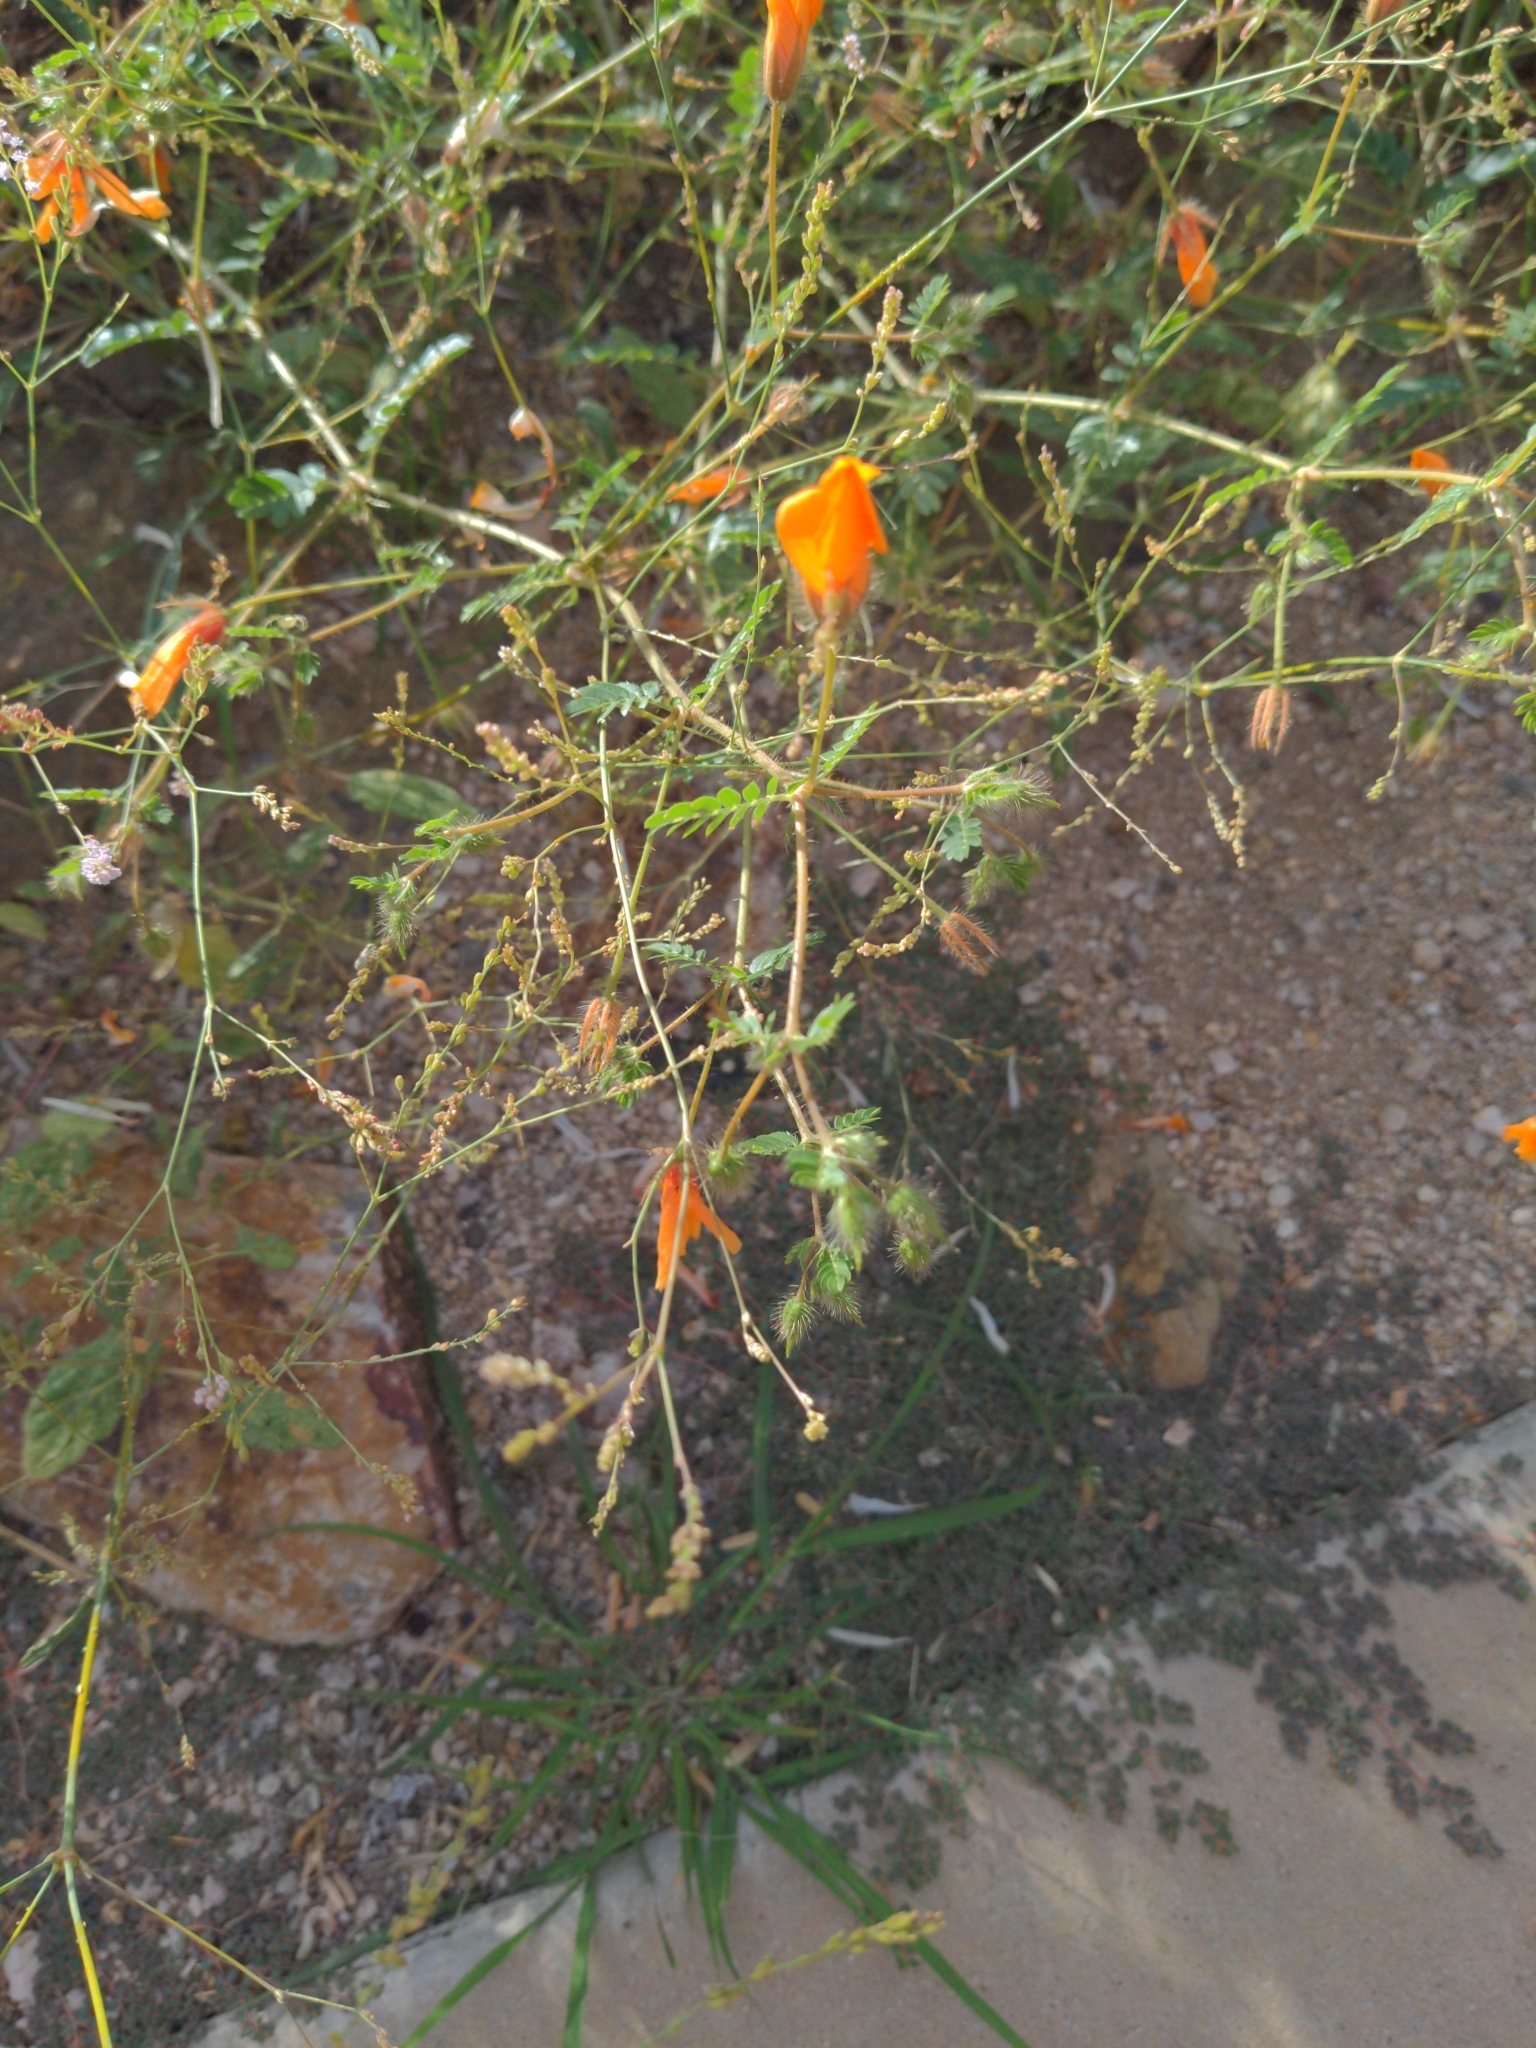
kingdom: Plantae
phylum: Tracheophyta
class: Magnoliopsida
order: Zygophyllales
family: Zygophyllaceae
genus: Kallstroemia
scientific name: Kallstroemia grandiflora
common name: Arizona-poppy
